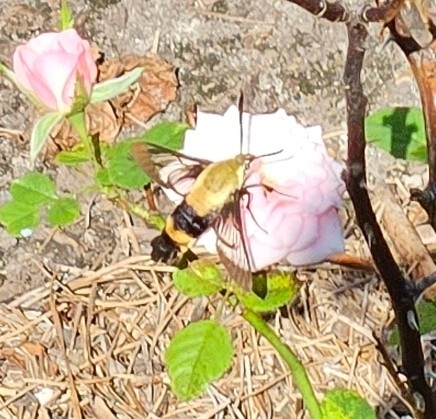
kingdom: Animalia
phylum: Arthropoda
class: Insecta
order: Lepidoptera
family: Sphingidae
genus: Hemaris
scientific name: Hemaris diffinis
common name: Bumblebee moth
